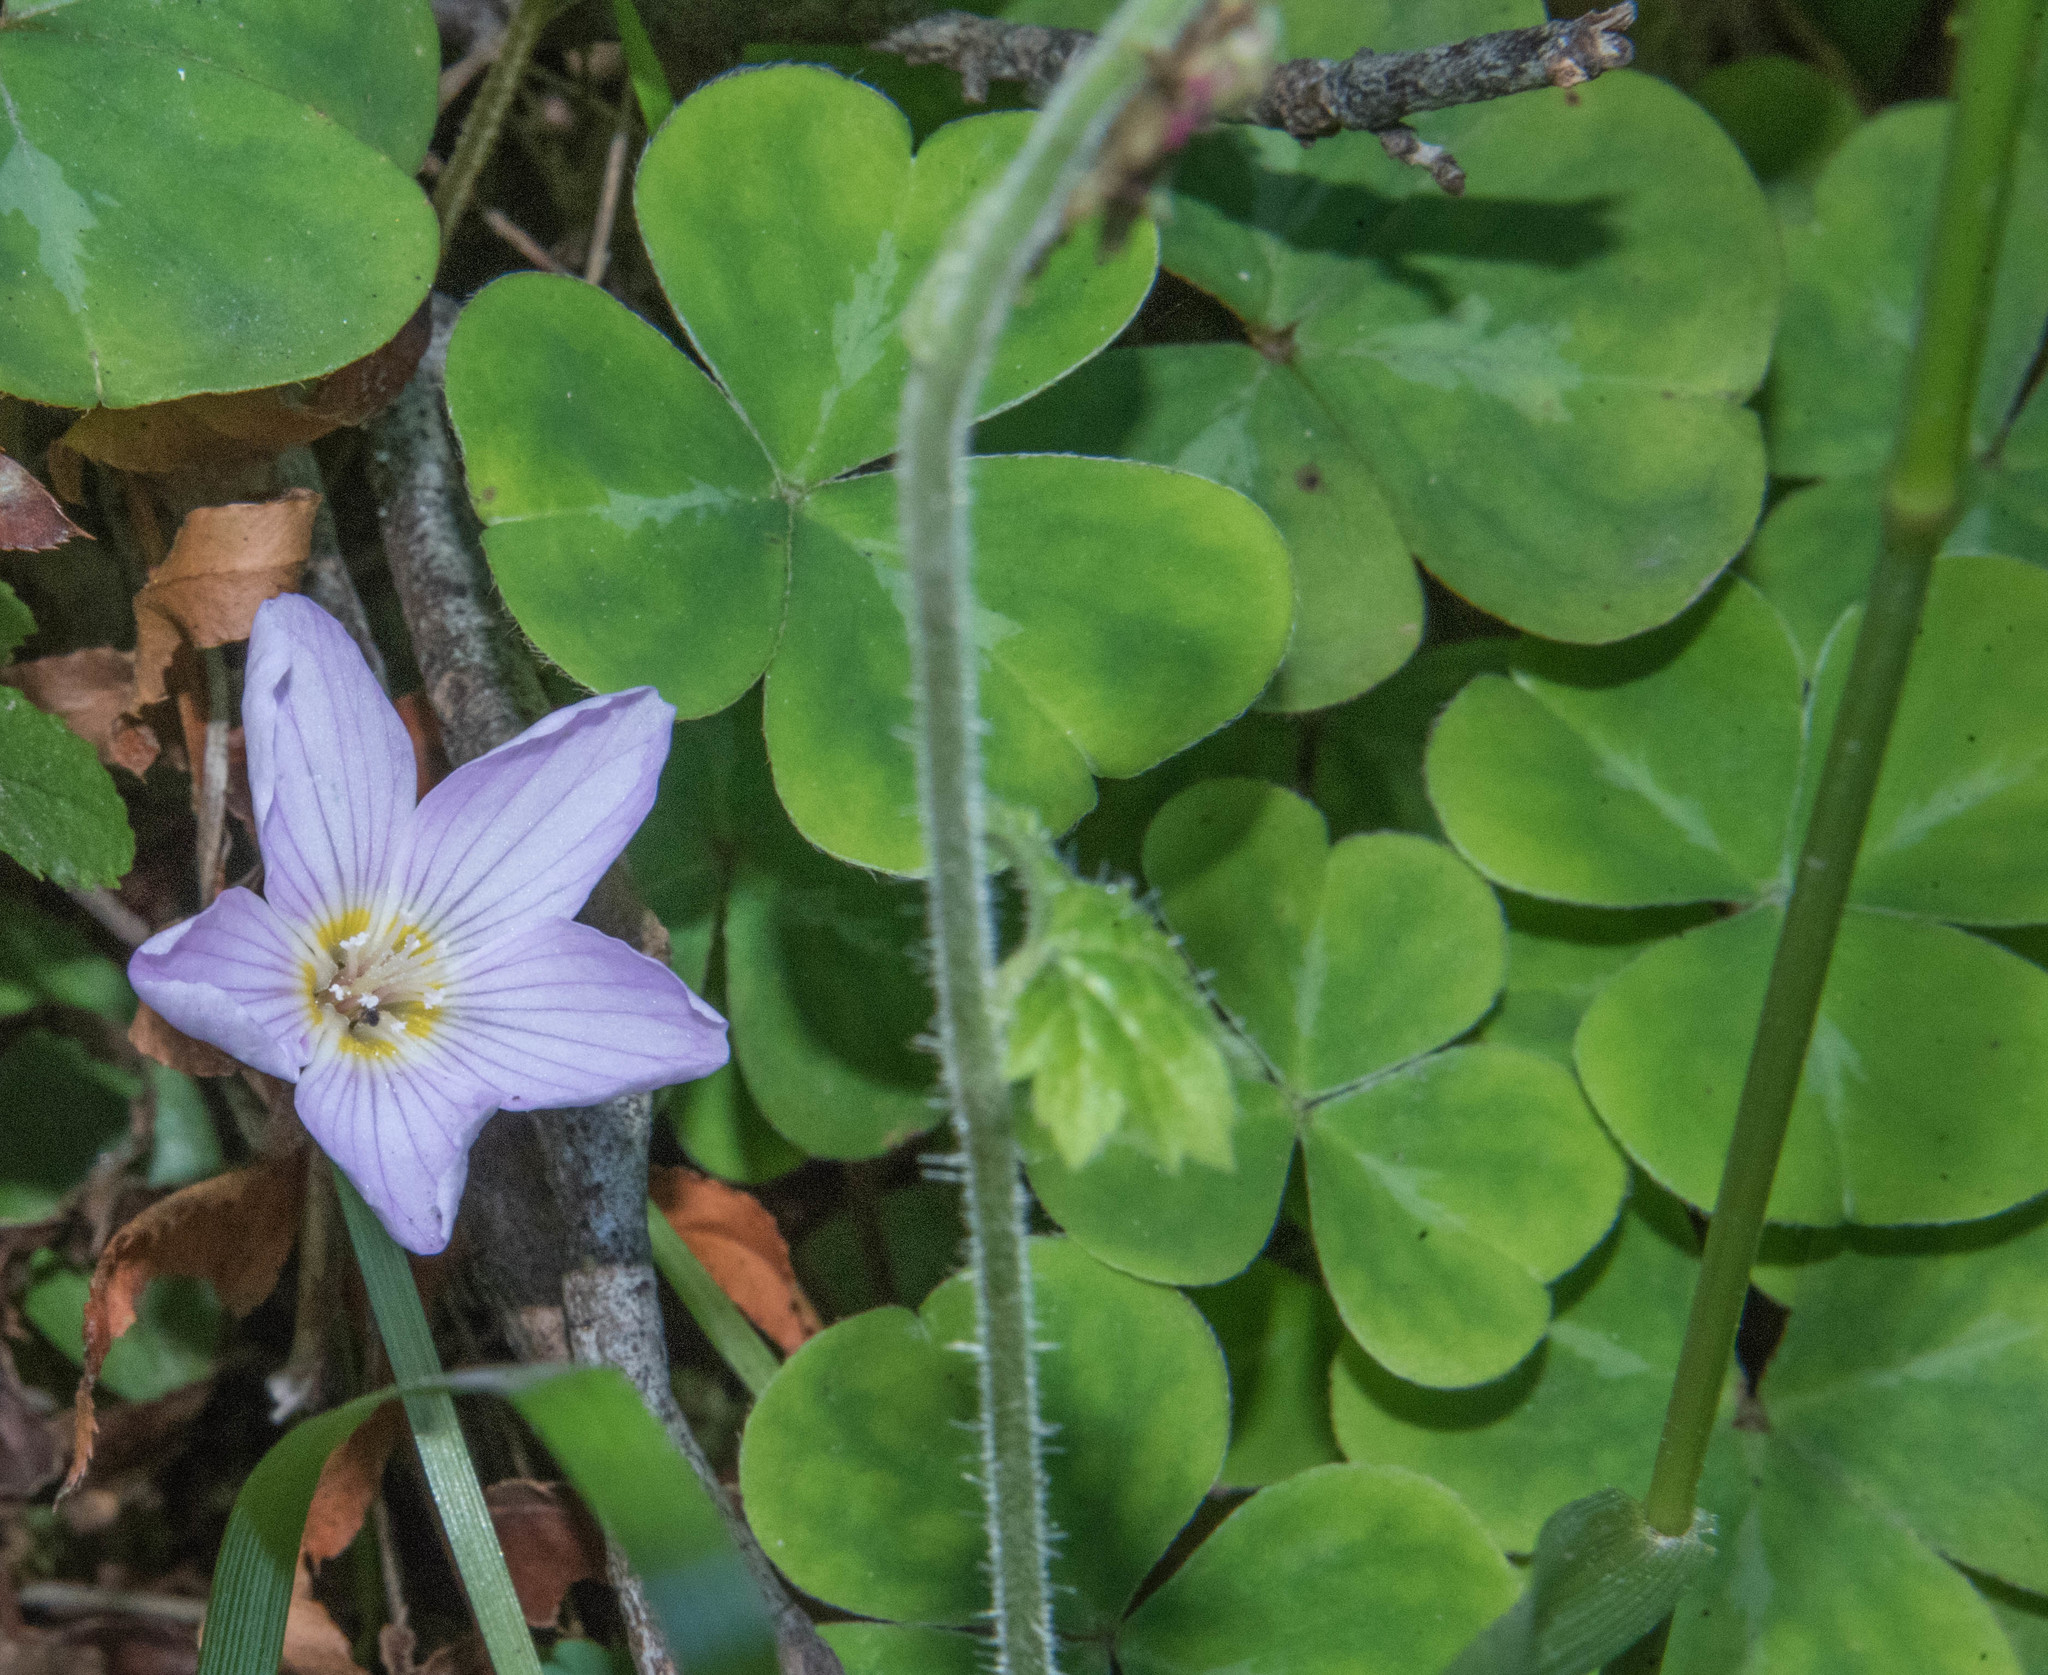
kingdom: Plantae
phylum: Tracheophyta
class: Magnoliopsida
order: Oxalidales
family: Oxalidaceae
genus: Oxalis
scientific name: Oxalis oregana
